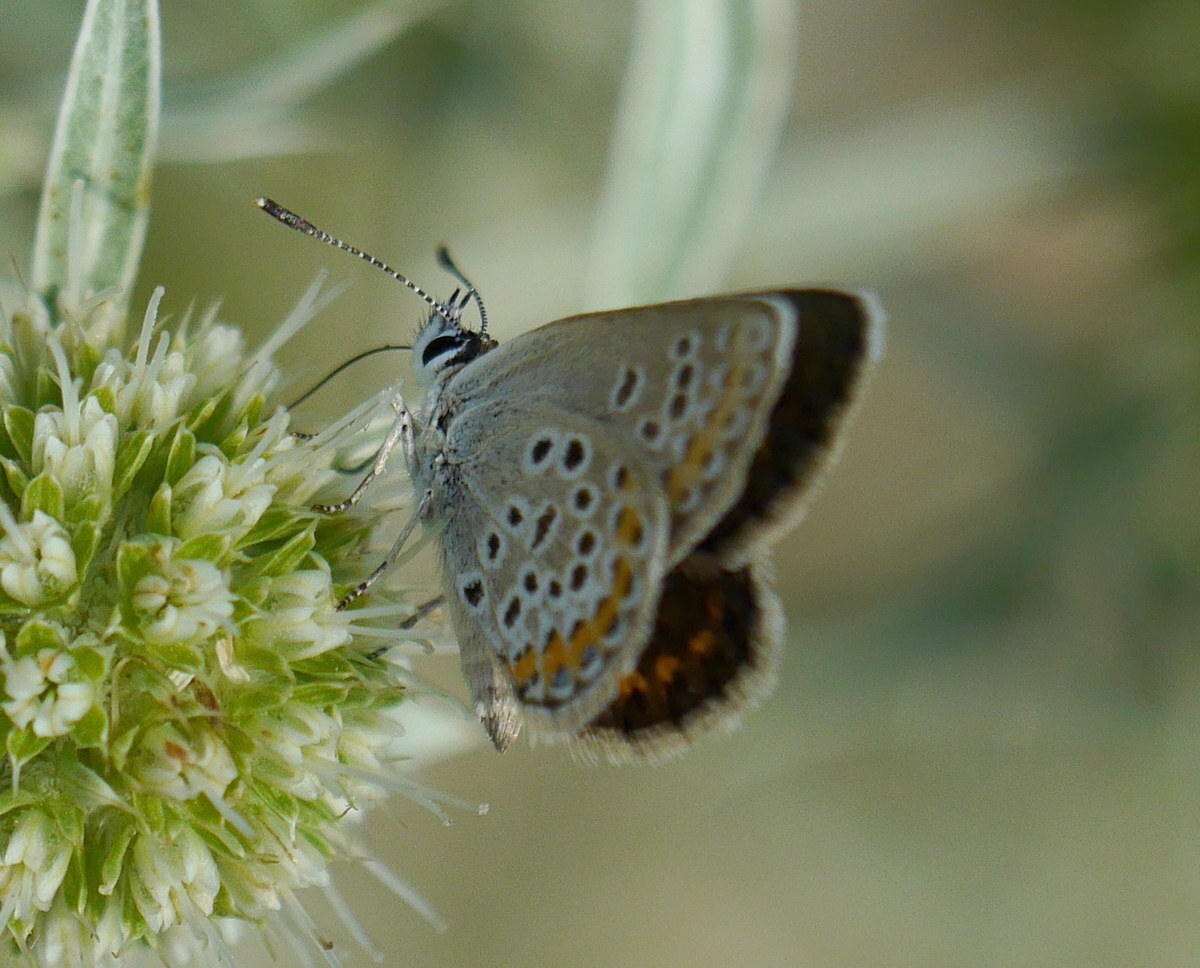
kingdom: Animalia
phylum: Arthropoda
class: Insecta
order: Lepidoptera
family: Lycaenidae
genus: Plebejus
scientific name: Plebejus argus
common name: Silver-studded blue
